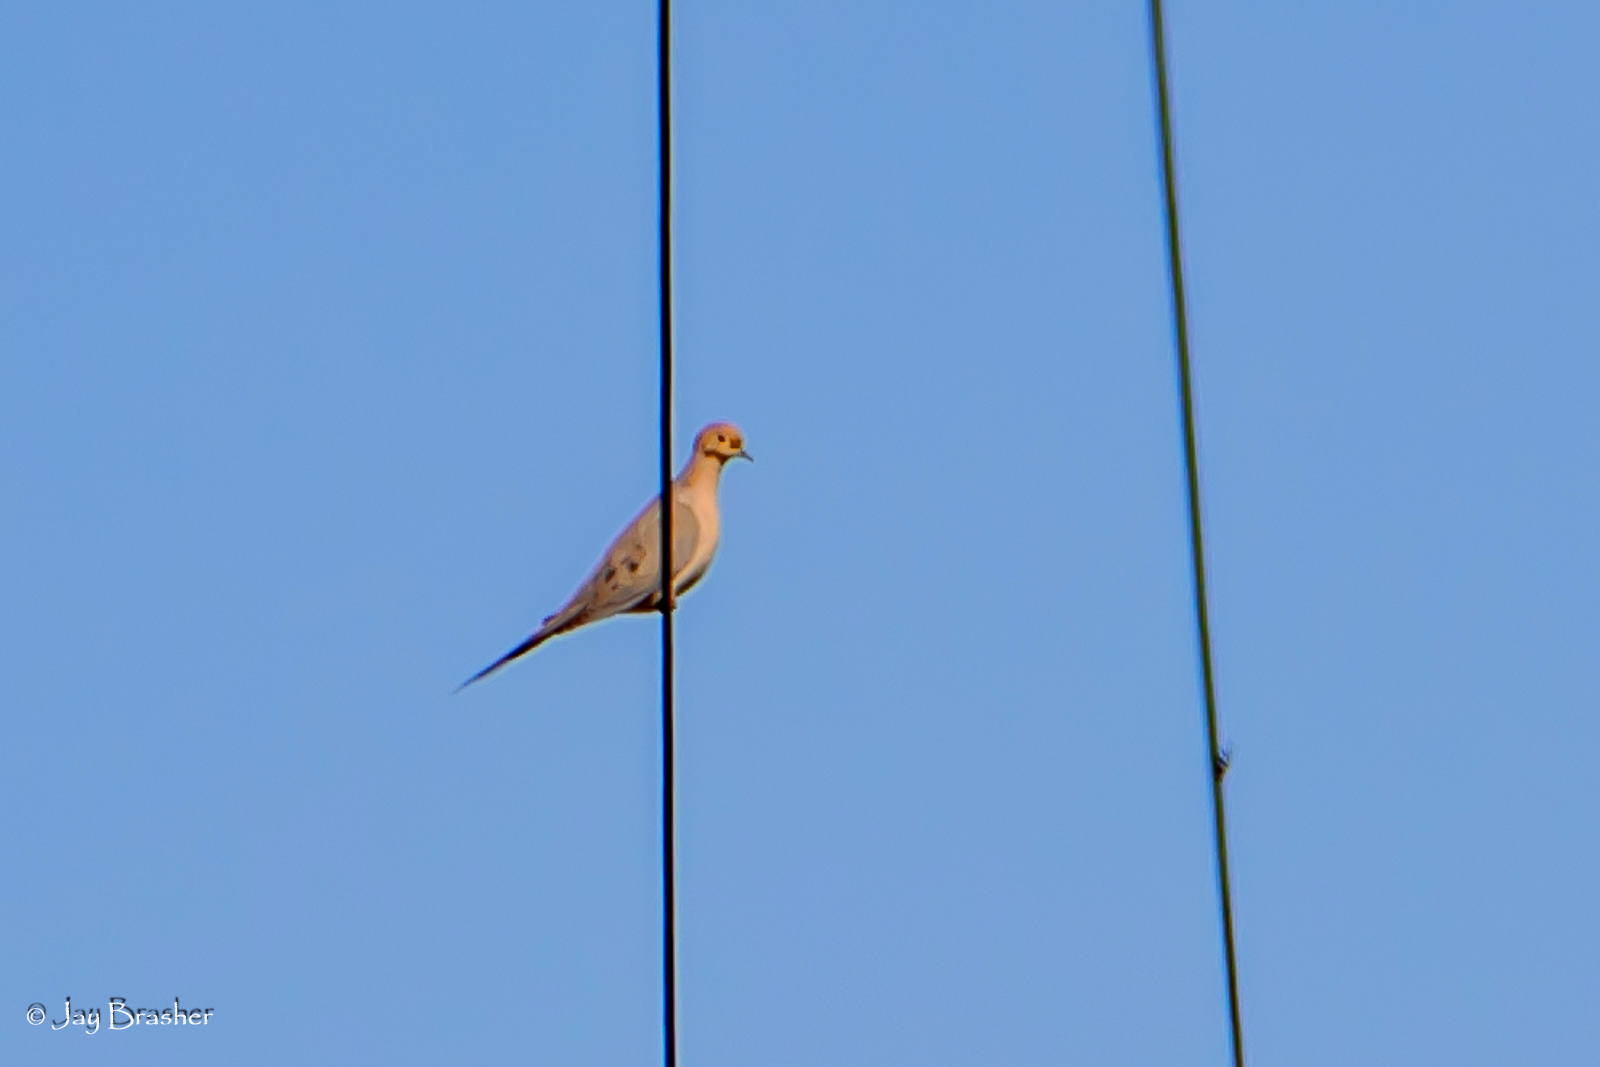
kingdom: Animalia
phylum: Chordata
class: Aves
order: Columbiformes
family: Columbidae
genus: Zenaida
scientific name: Zenaida macroura
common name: Mourning dove
